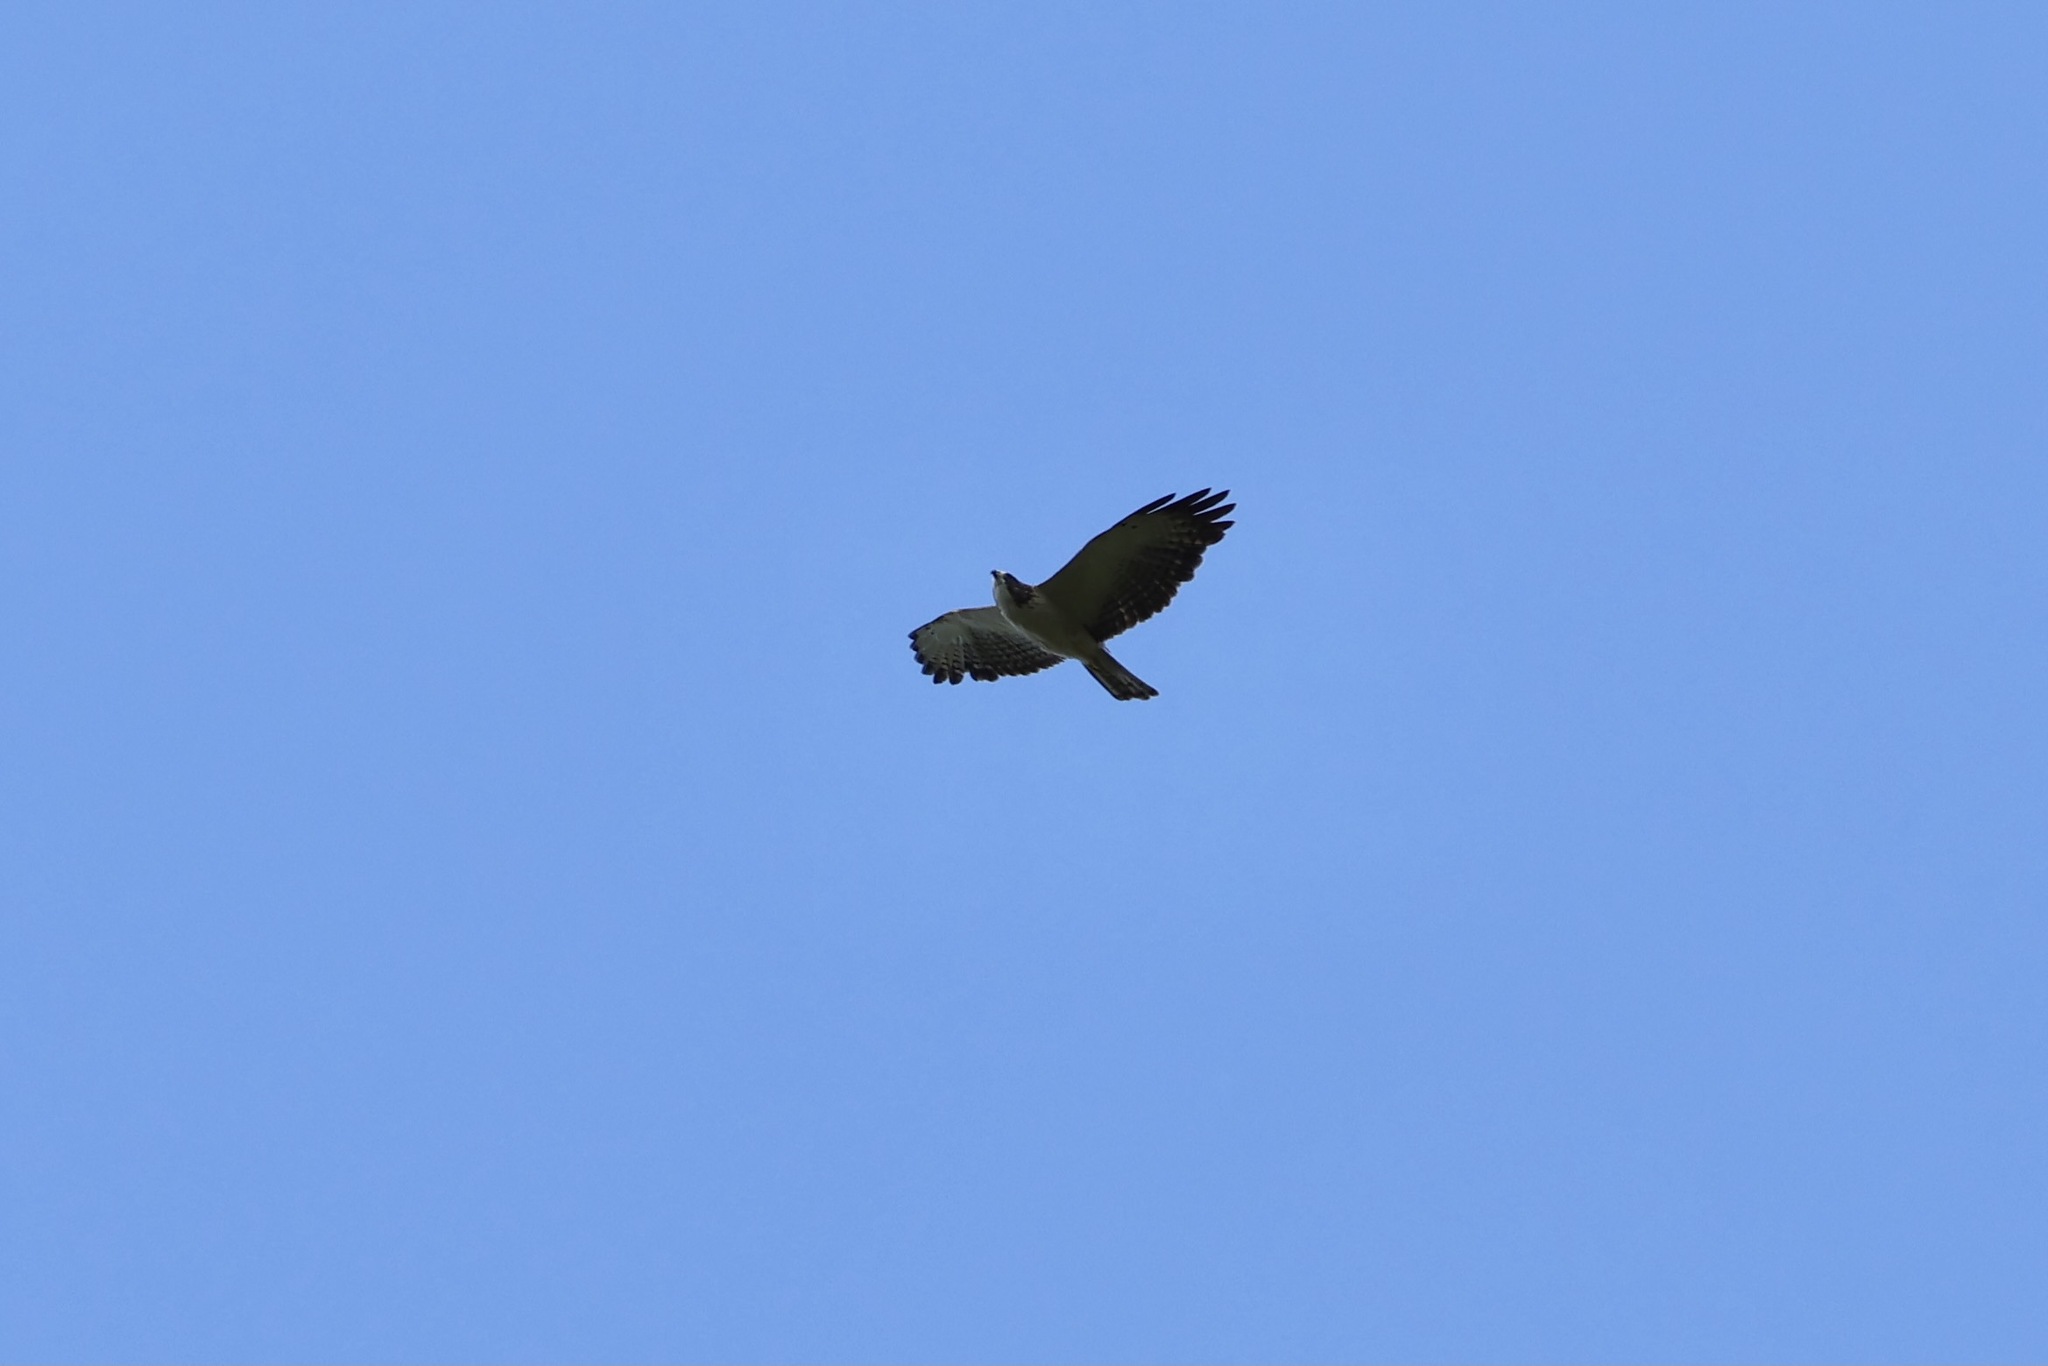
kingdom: Animalia
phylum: Chordata
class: Aves
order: Accipitriformes
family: Accipitridae
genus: Buteo
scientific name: Buteo brachyurus
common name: Short-tailed hawk
